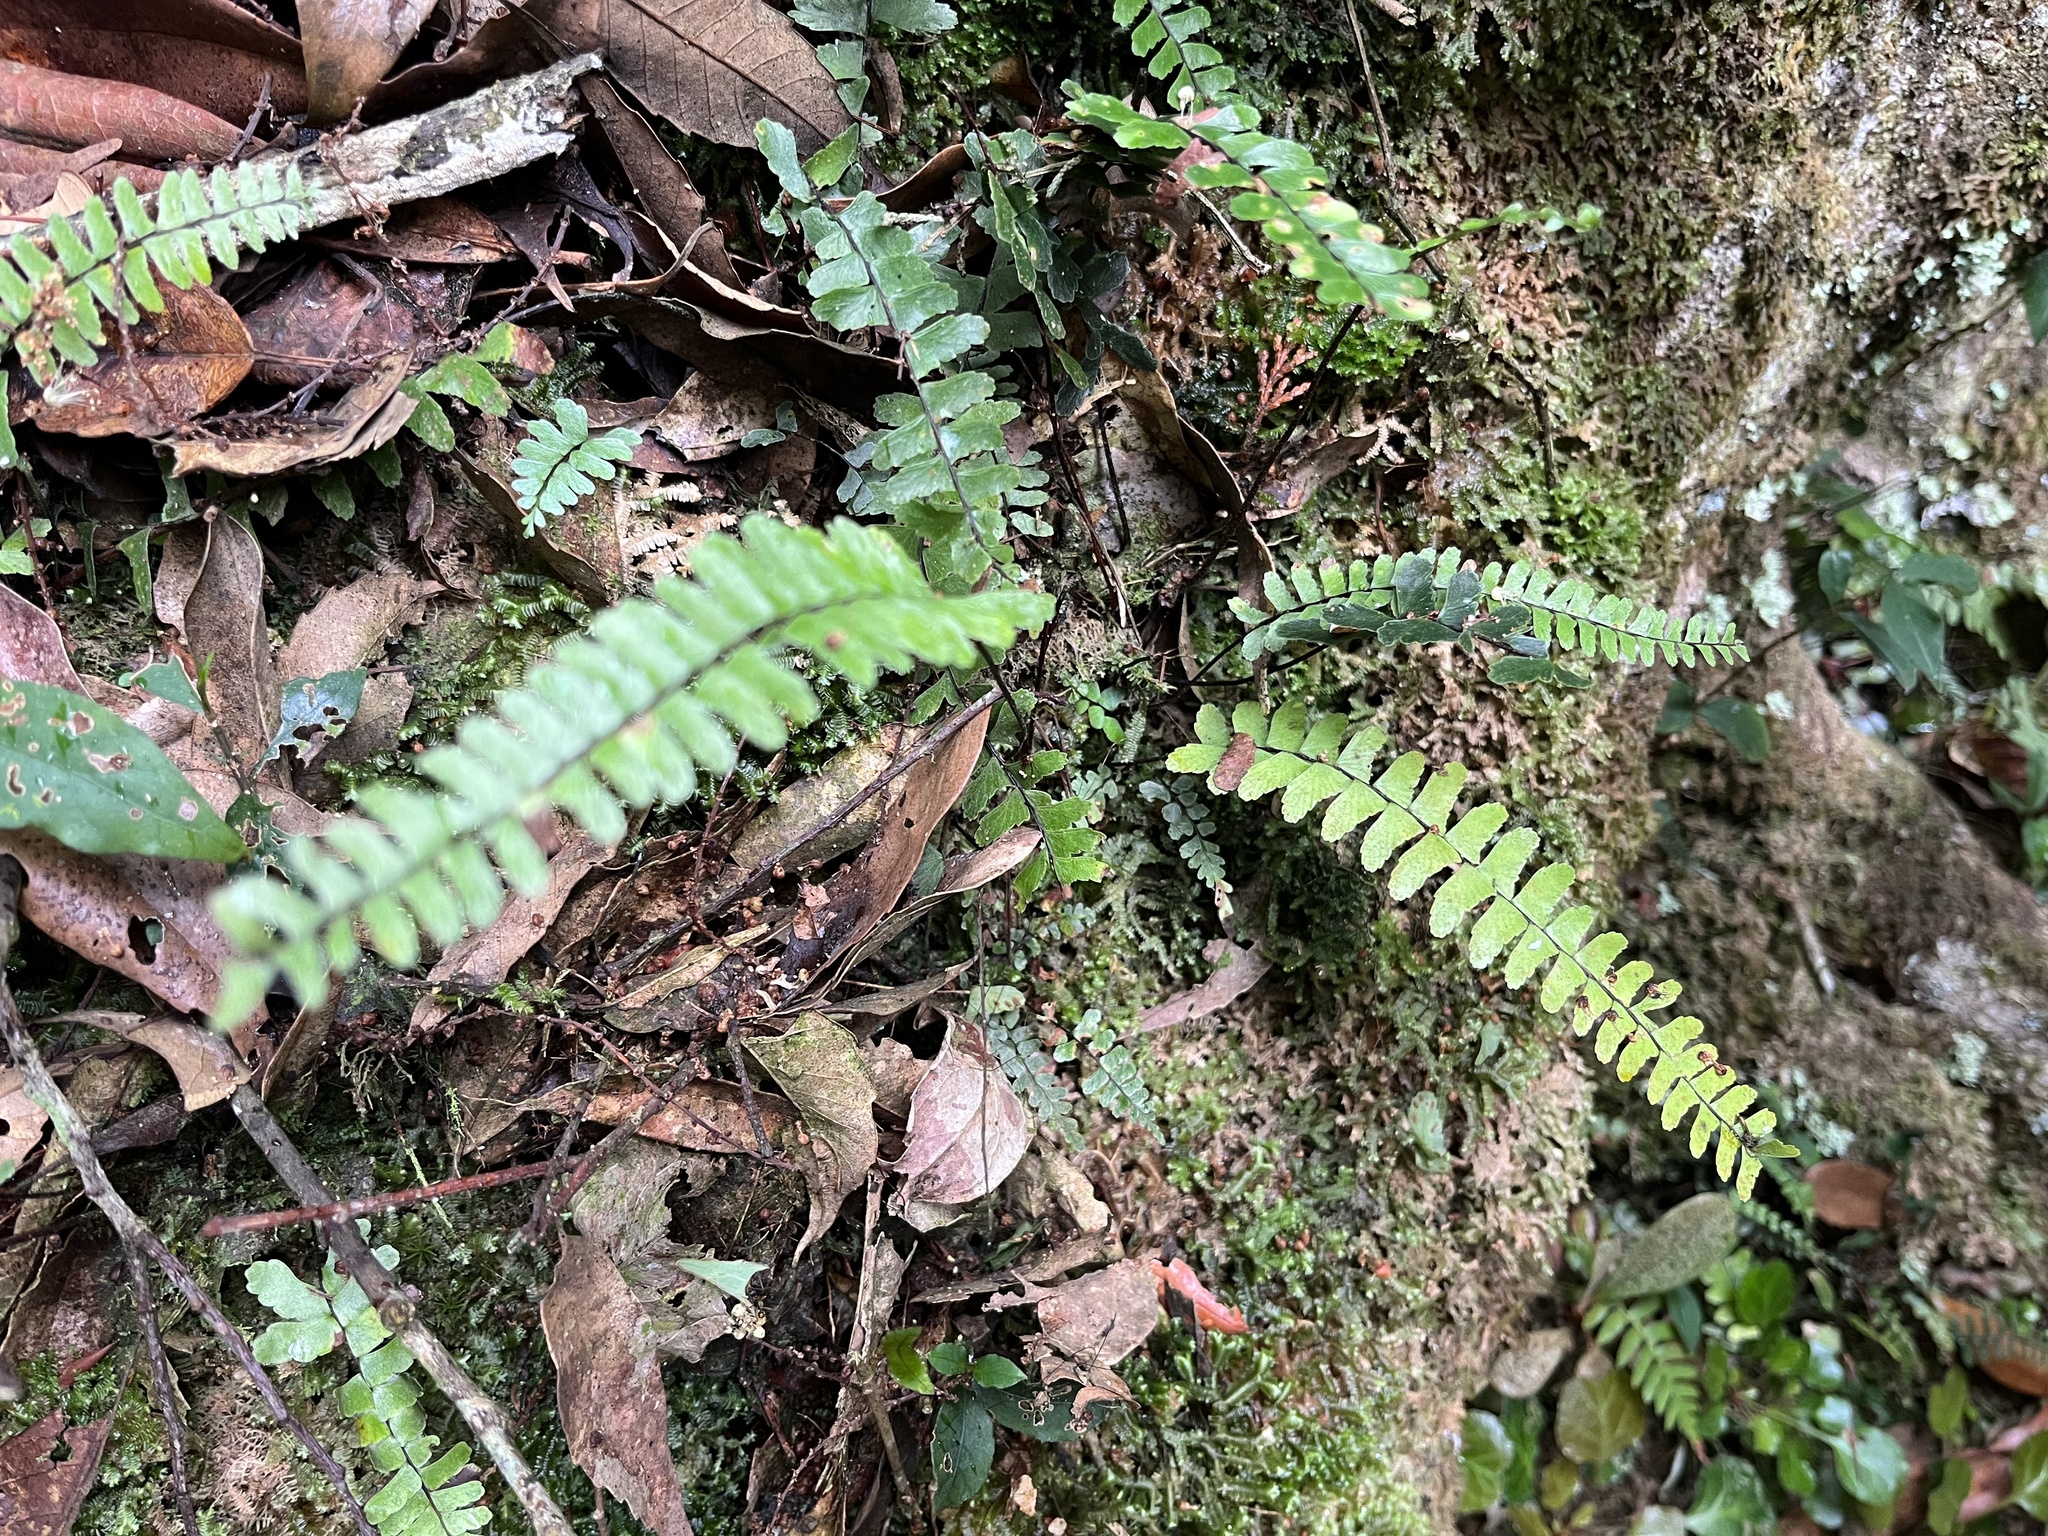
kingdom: Plantae
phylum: Tracheophyta
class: Polypodiopsida
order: Polypodiales
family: Aspleniaceae
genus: Asplenium
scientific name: Asplenium normale
